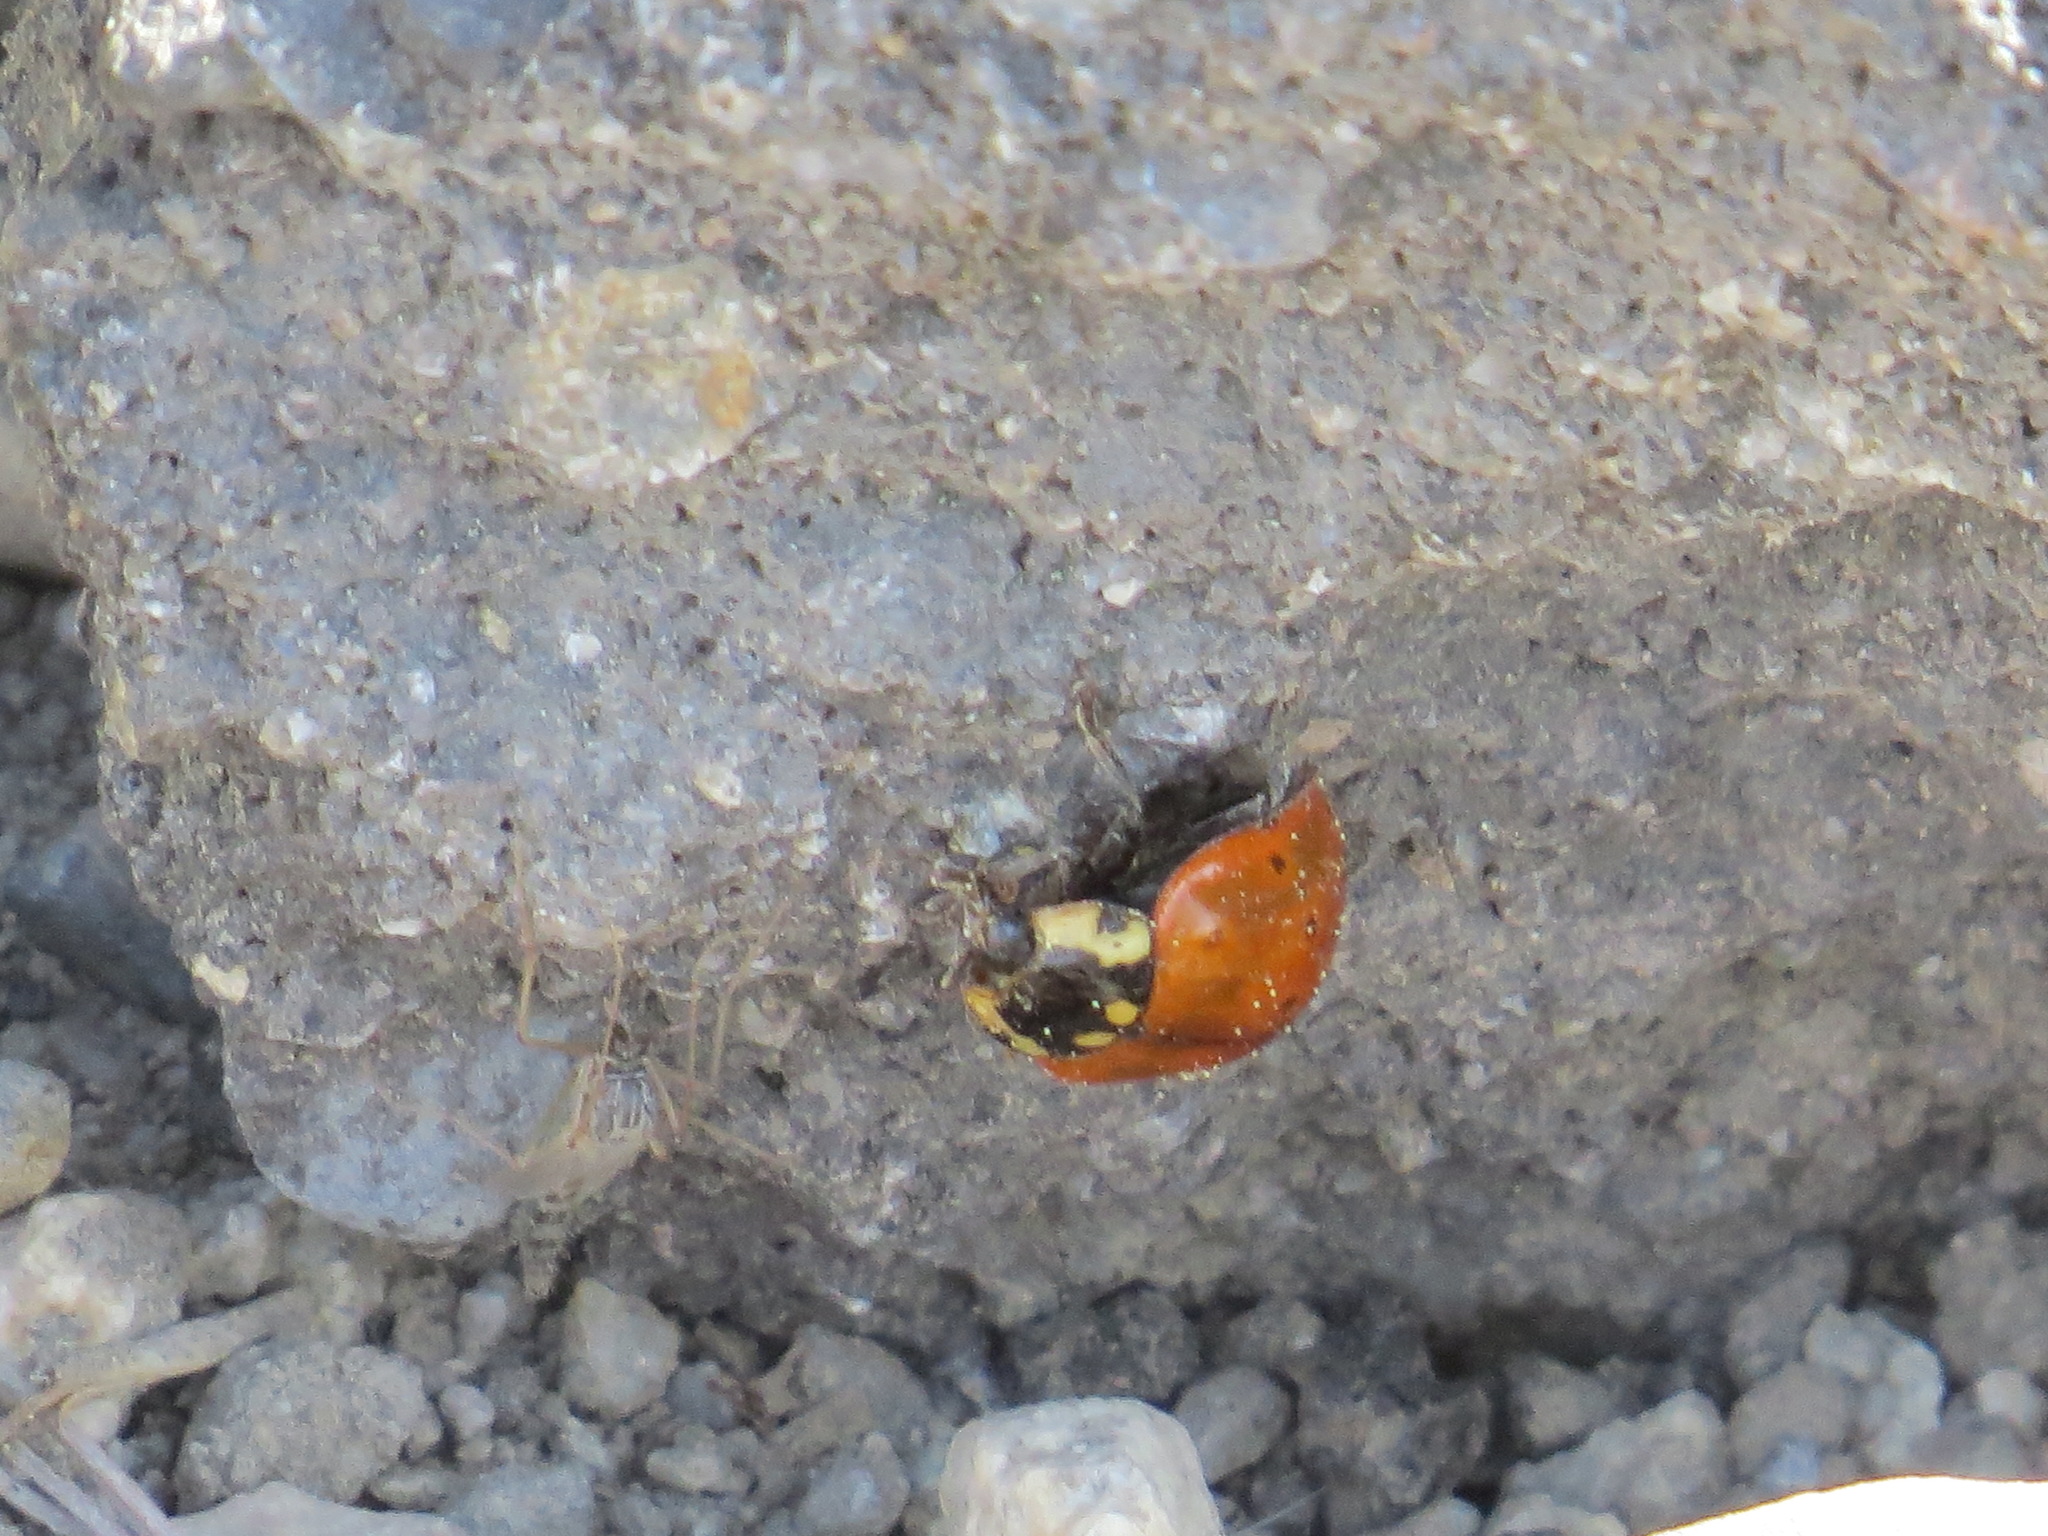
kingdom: Animalia
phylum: Arthropoda
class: Insecta
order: Coleoptera
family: Coccinellidae
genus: Anatis
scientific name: Anatis rathvoni
